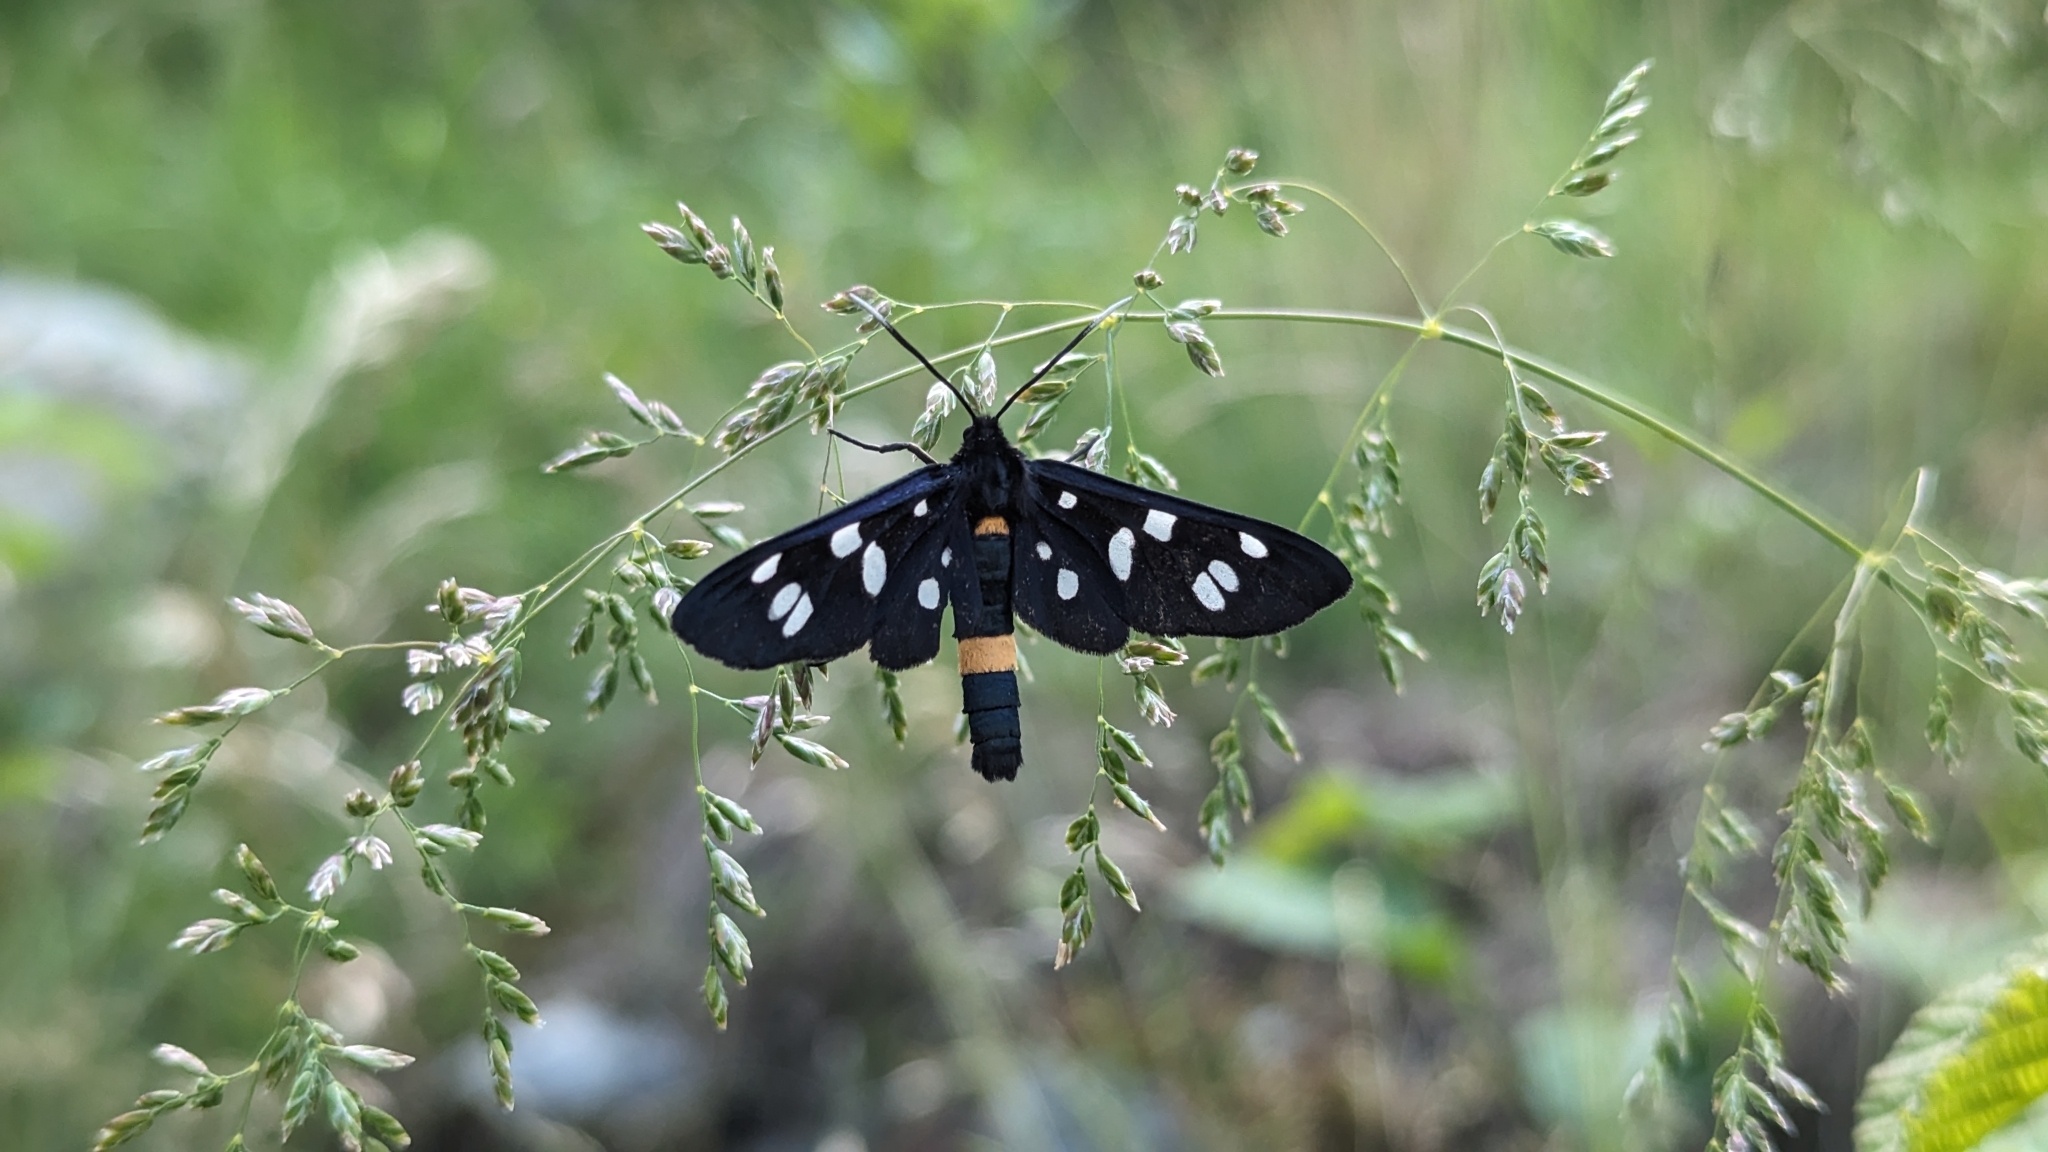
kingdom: Animalia
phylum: Arthropoda
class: Insecta
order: Lepidoptera
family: Erebidae
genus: Amata
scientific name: Amata phegea
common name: Nine-spotted
